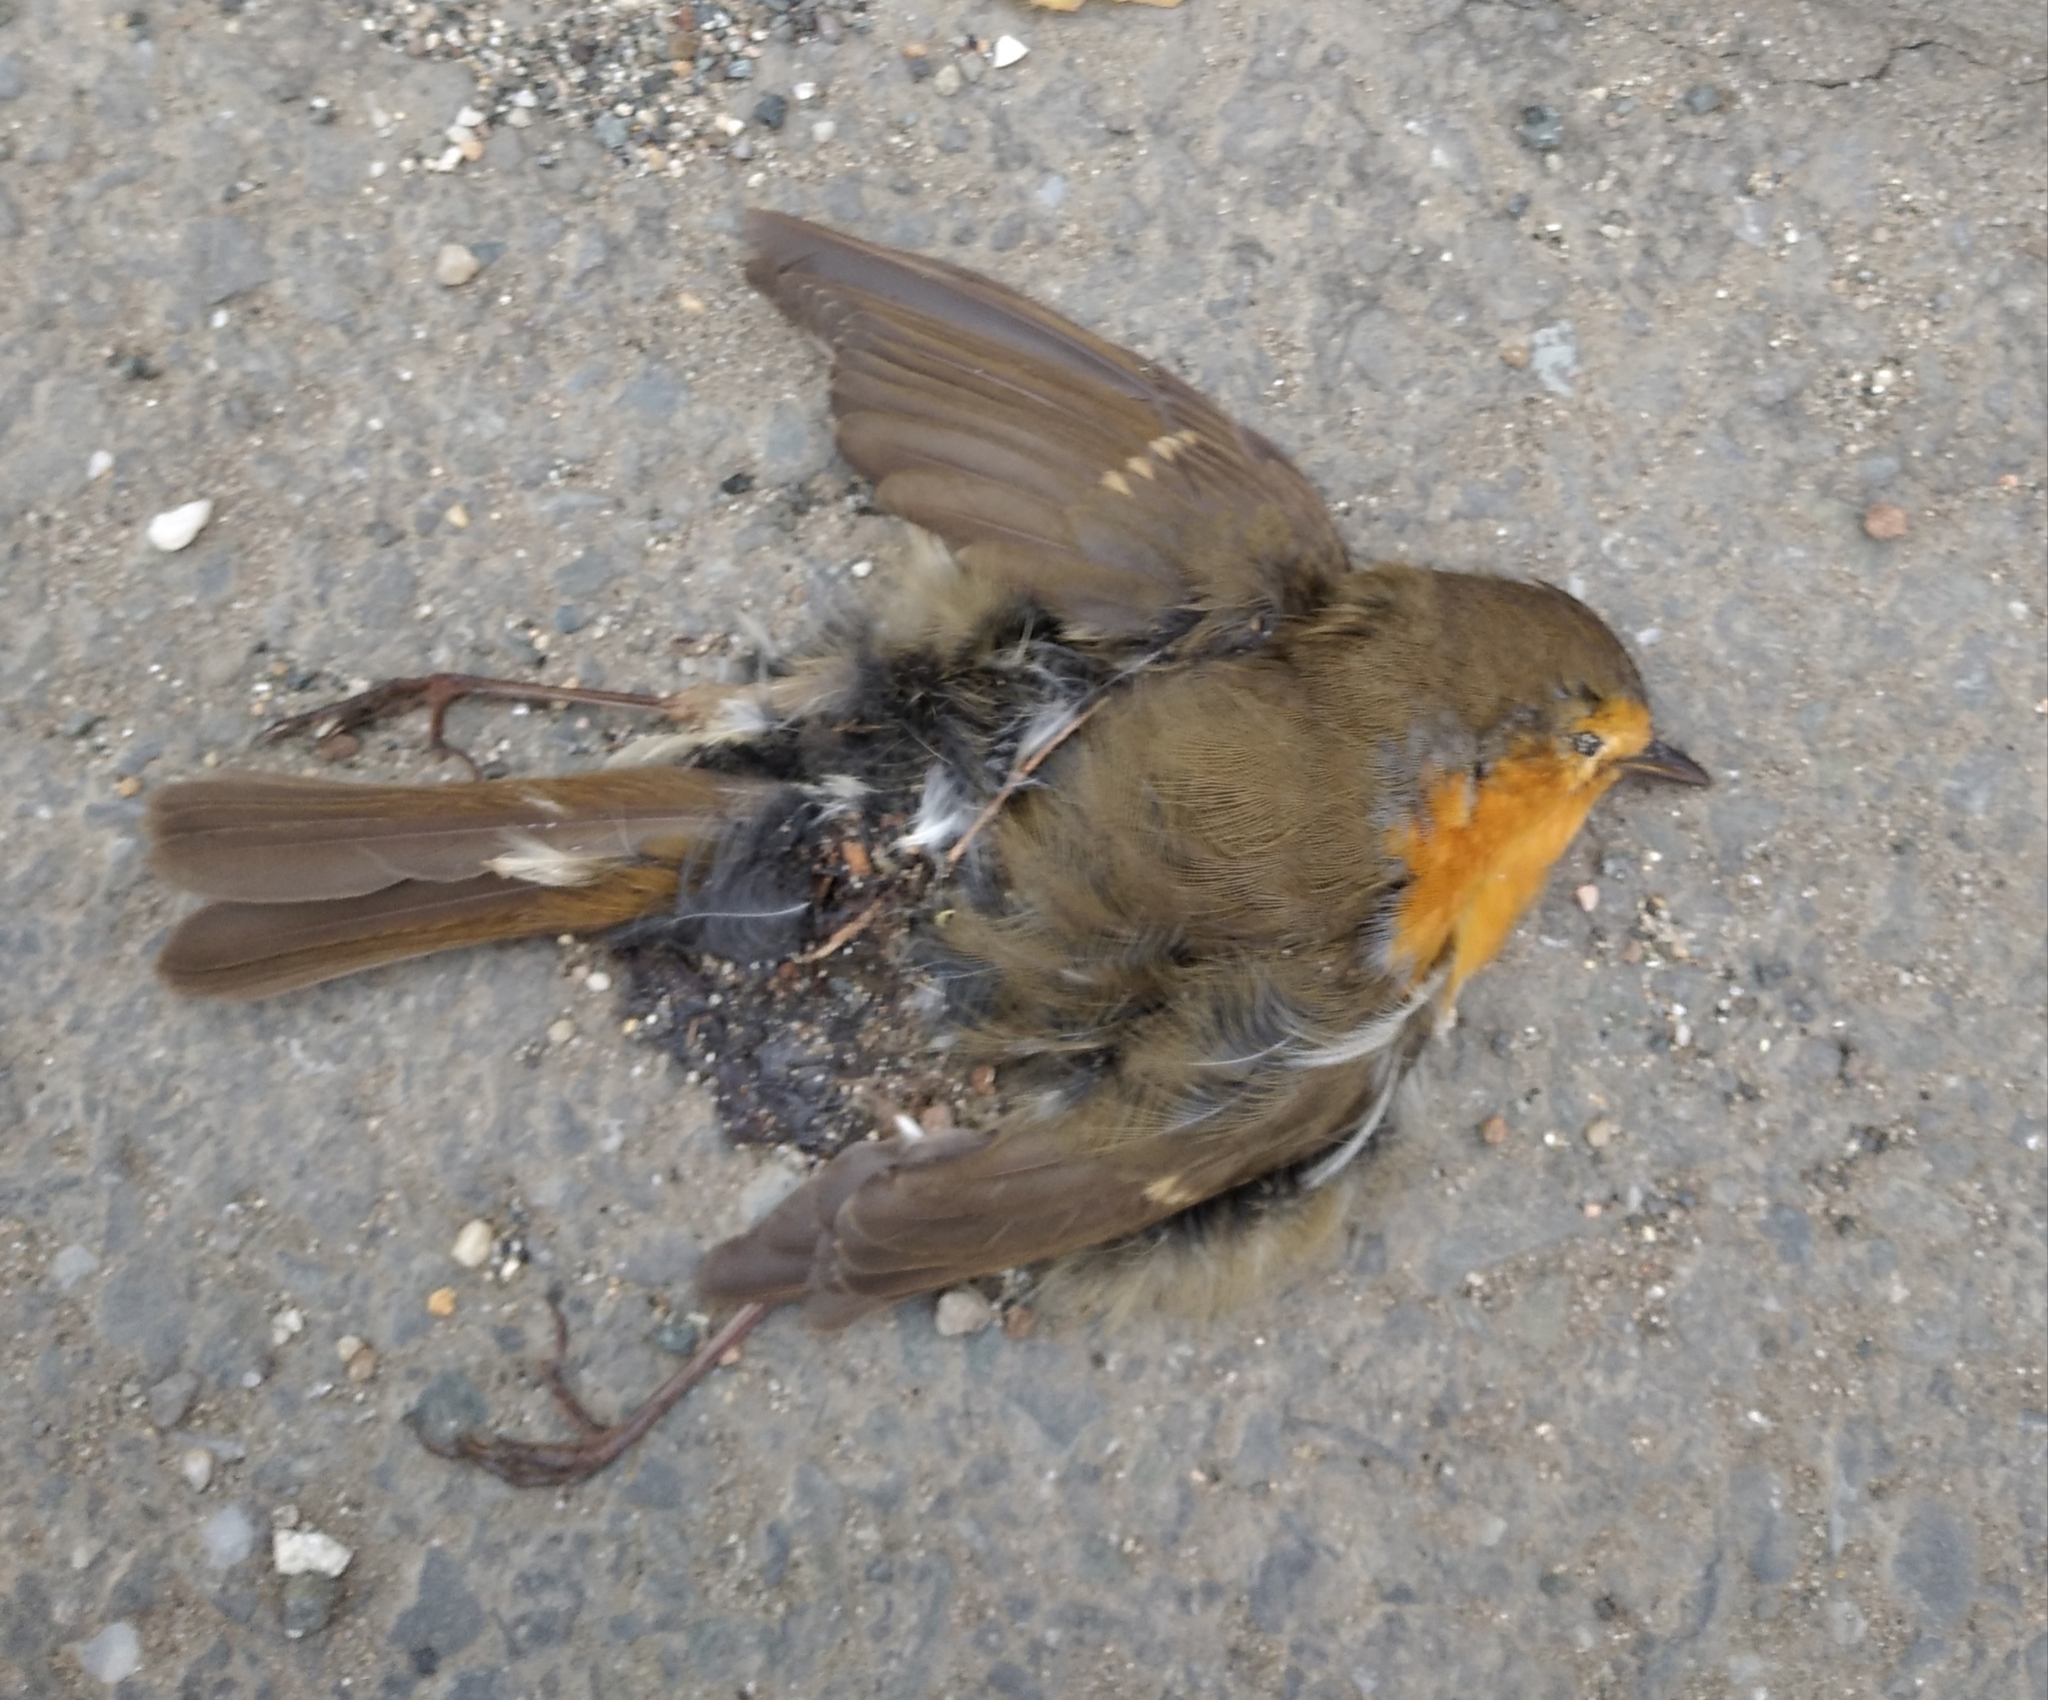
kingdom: Animalia
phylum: Chordata
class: Aves
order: Passeriformes
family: Muscicapidae
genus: Erithacus
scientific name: Erithacus rubecula
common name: European robin
